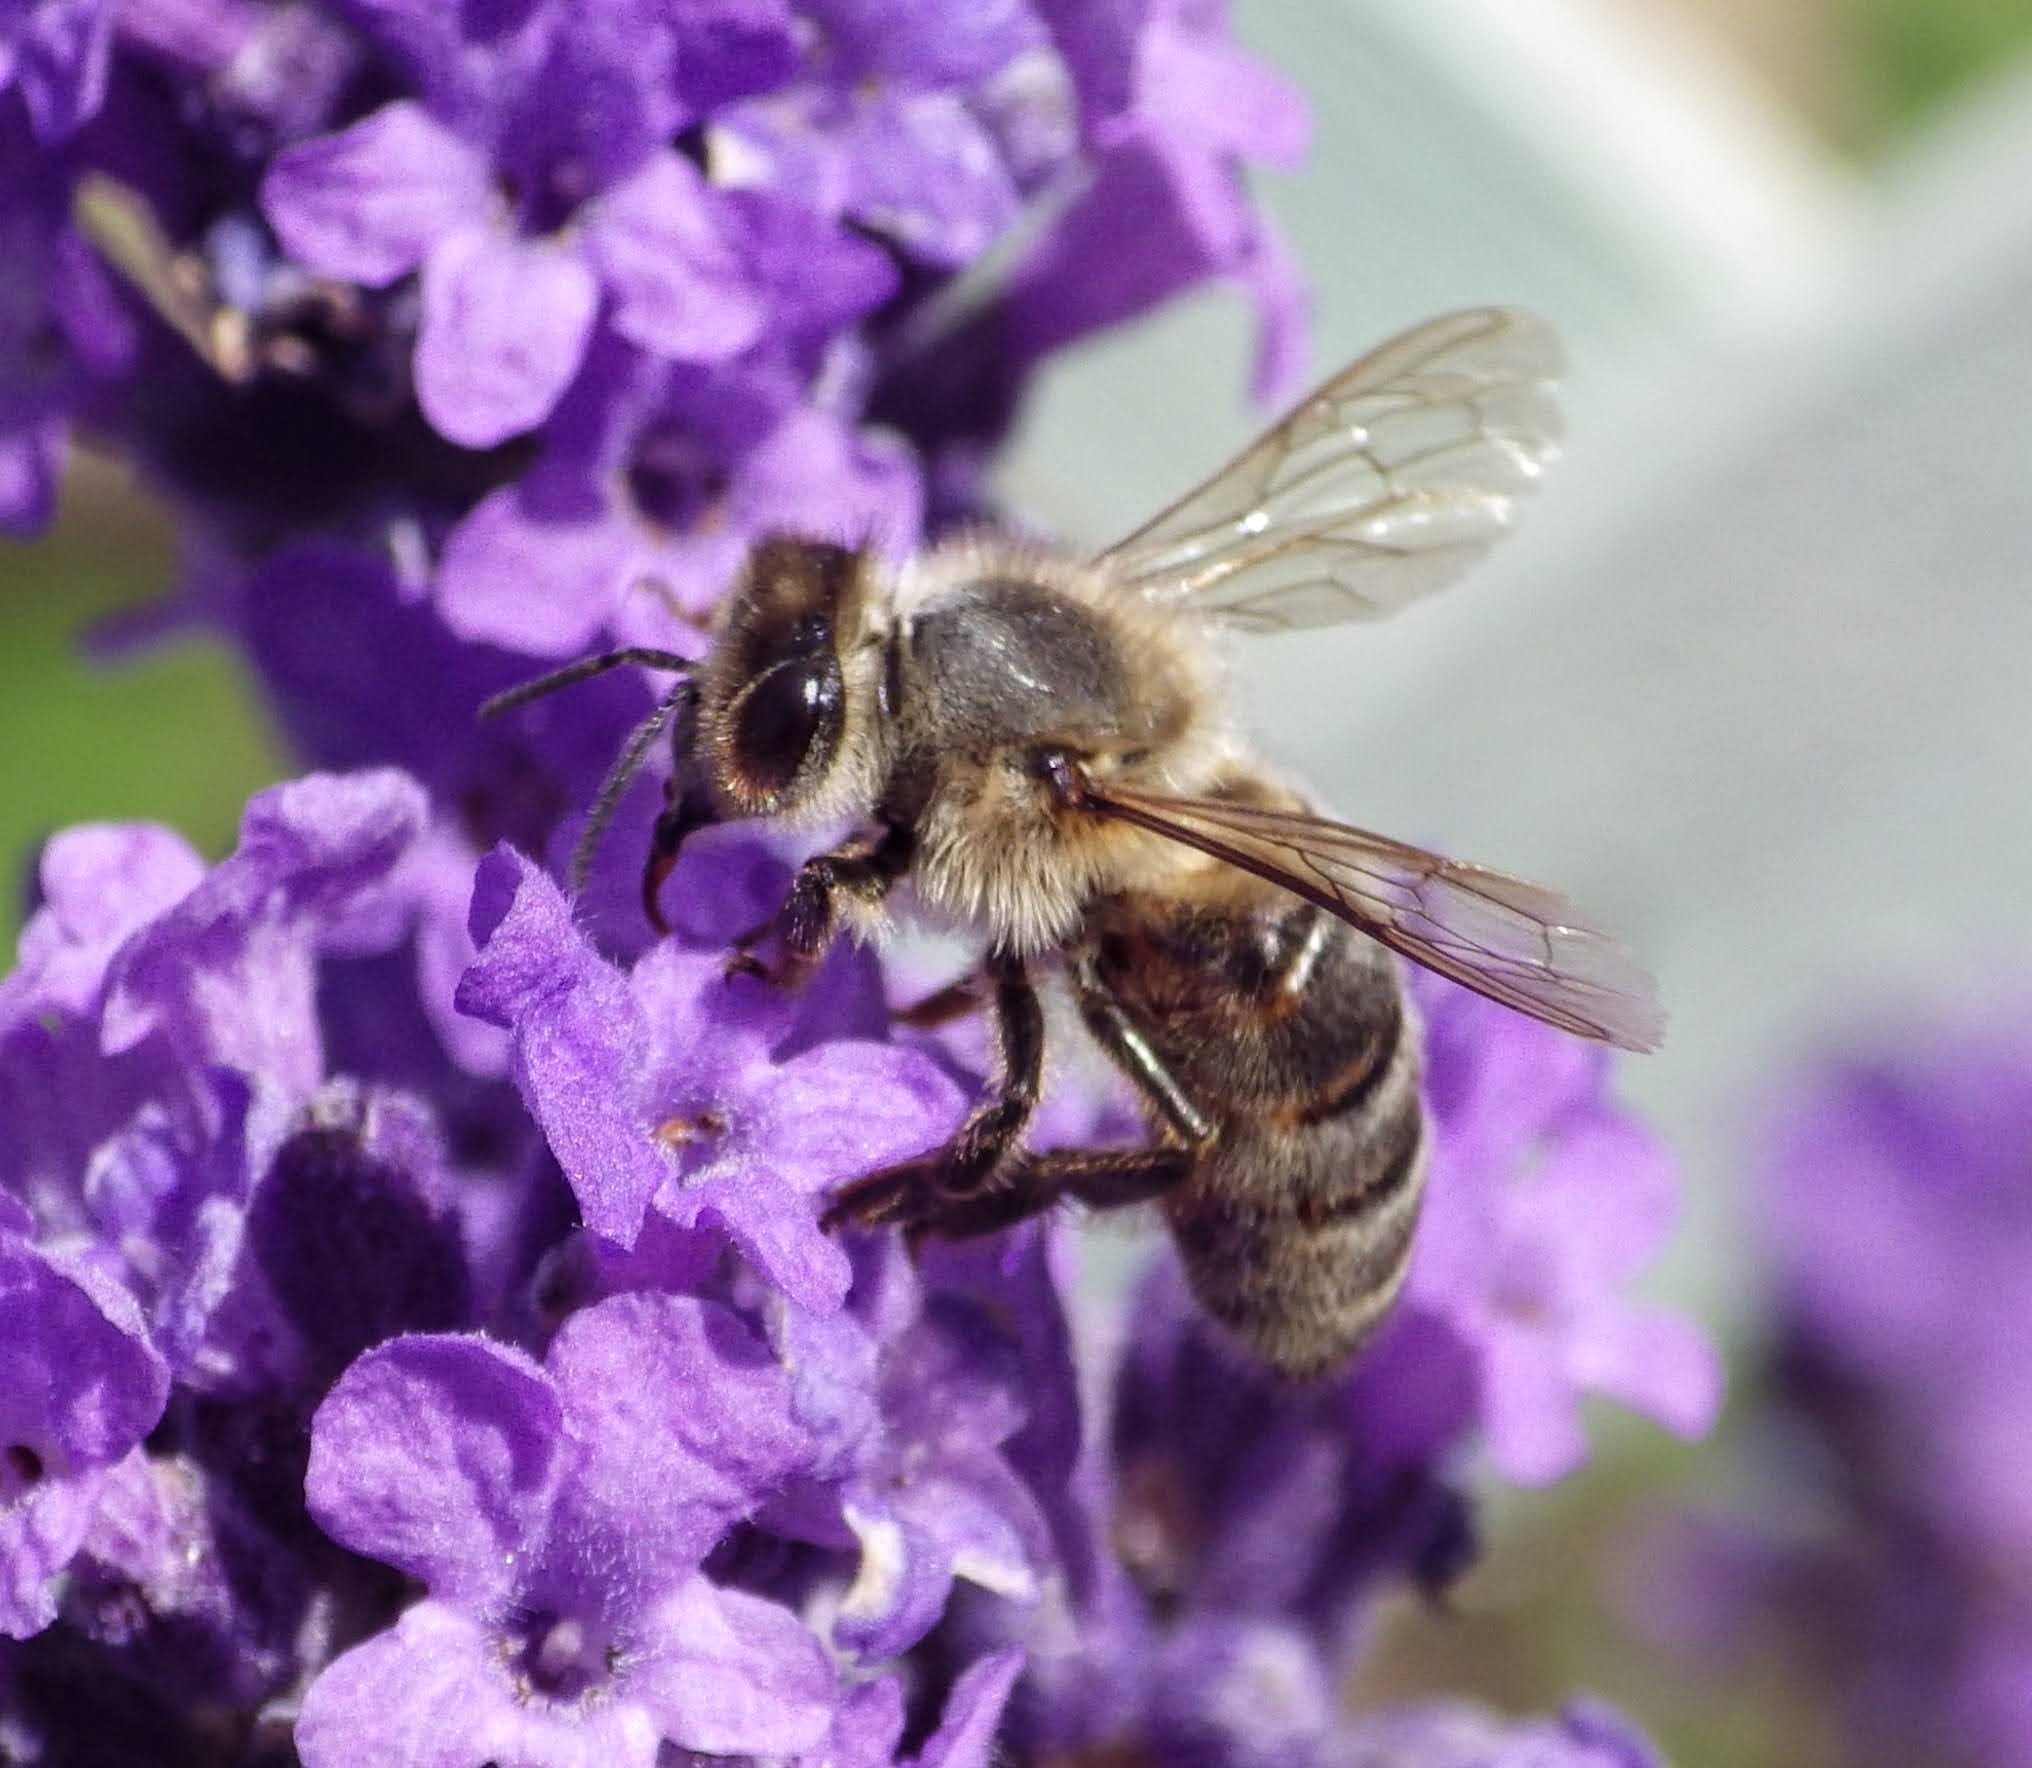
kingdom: Animalia
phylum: Arthropoda
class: Insecta
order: Hymenoptera
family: Apidae
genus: Apis
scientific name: Apis mellifera
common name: Honey bee
